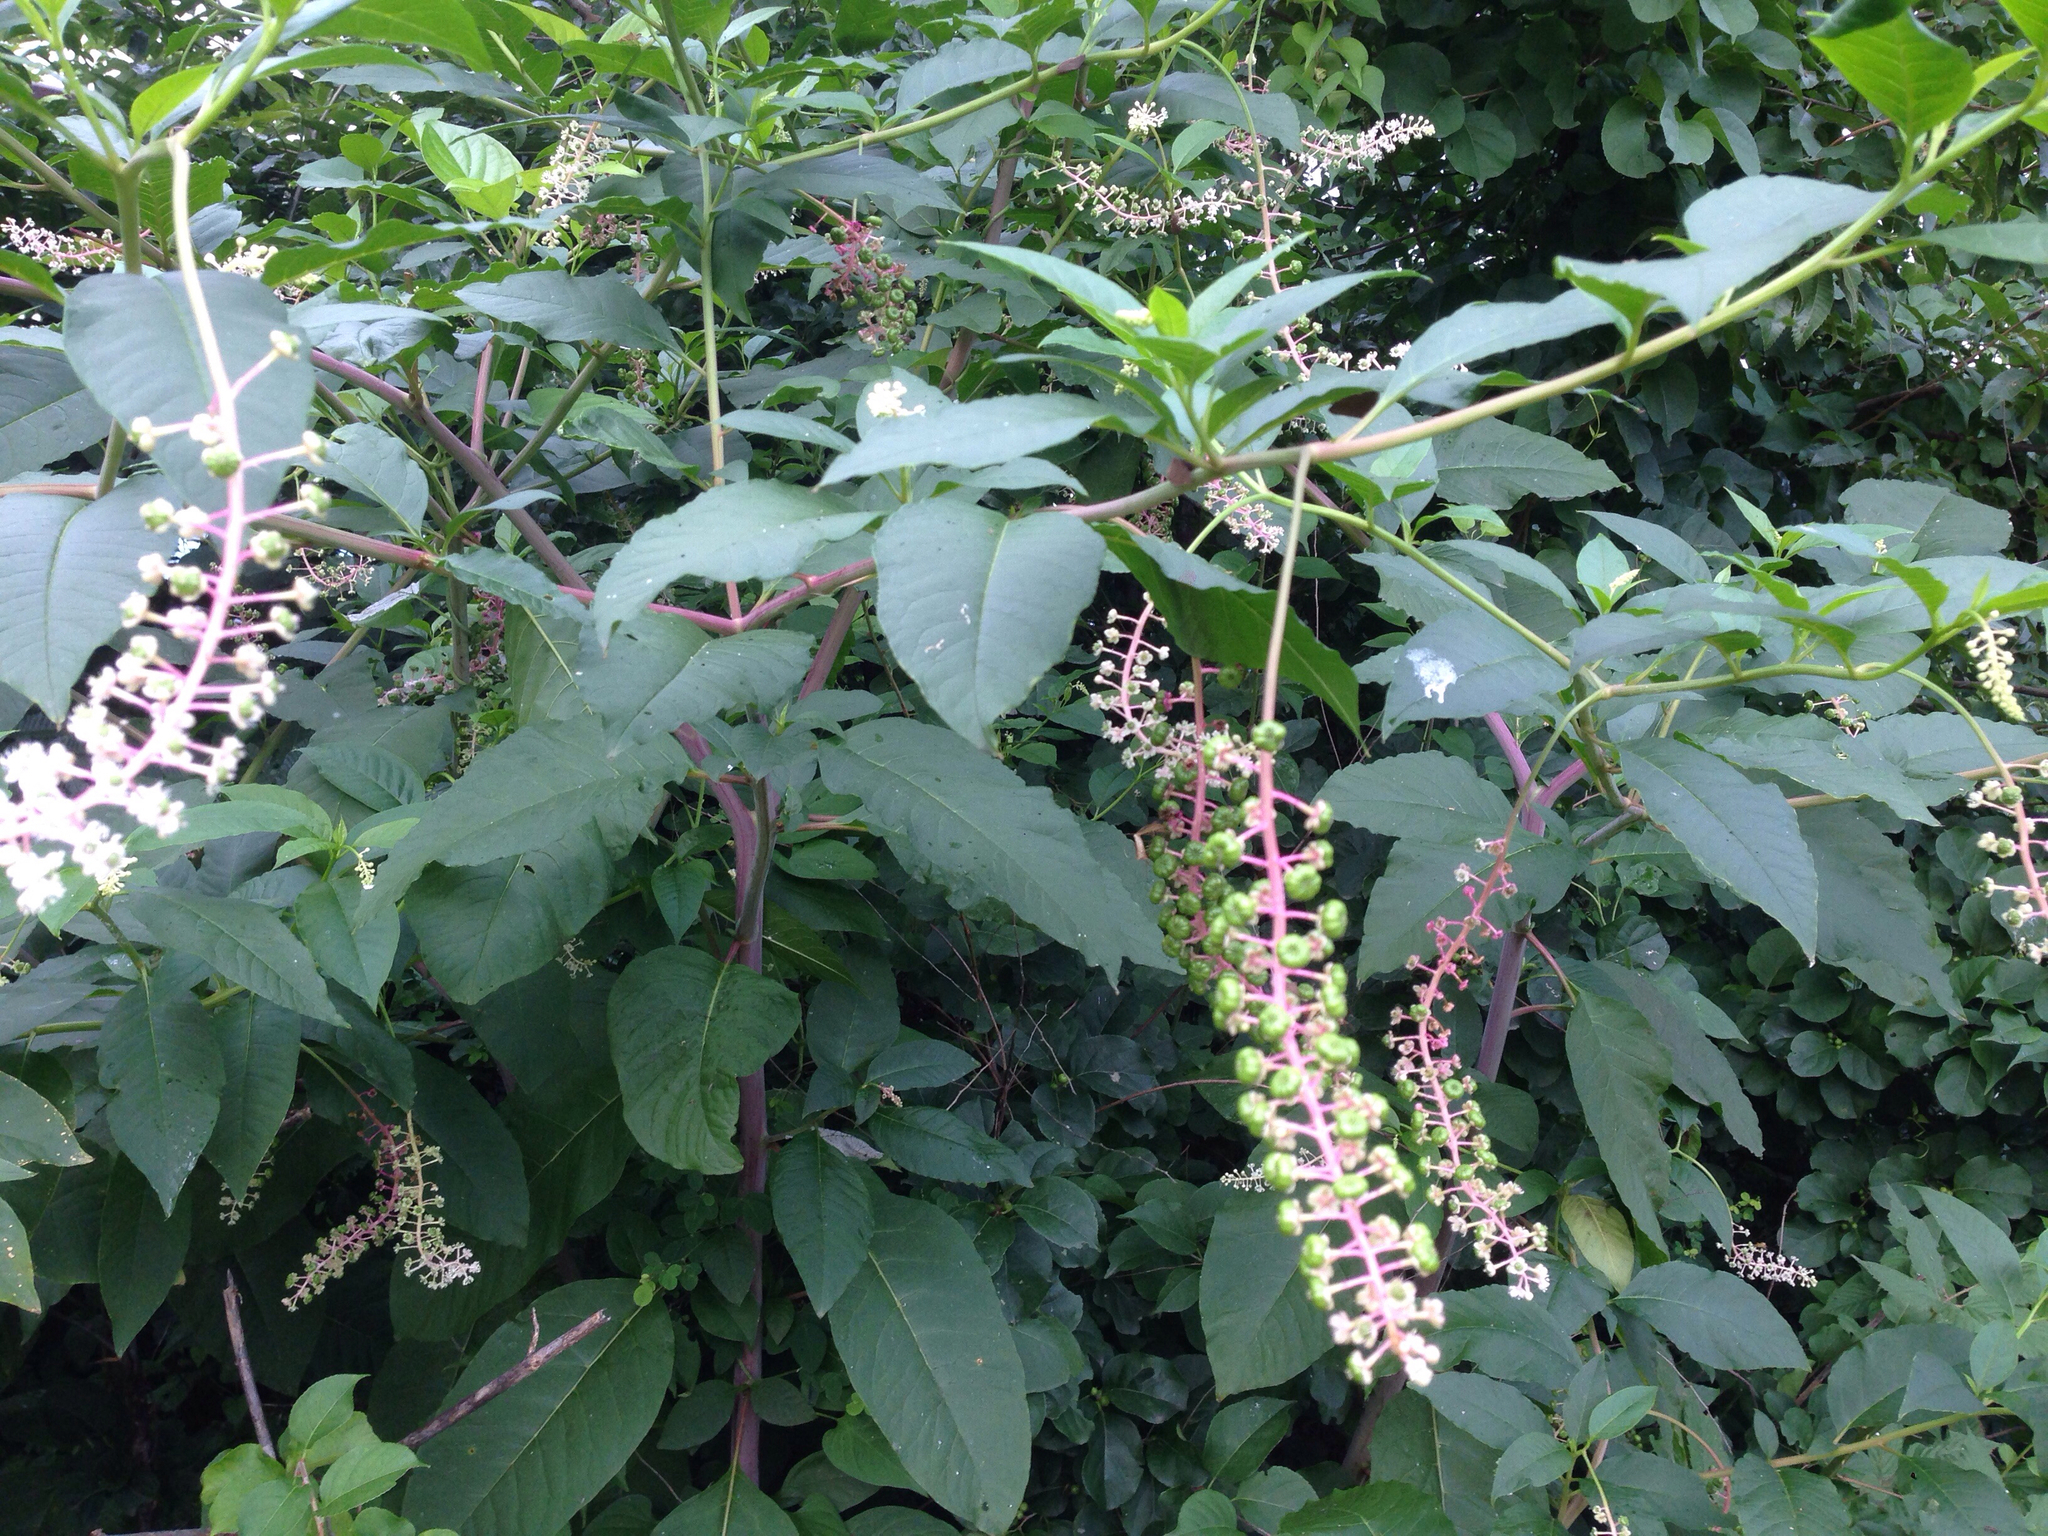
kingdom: Plantae
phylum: Tracheophyta
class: Magnoliopsida
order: Caryophyllales
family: Phytolaccaceae
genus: Phytolacca
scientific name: Phytolacca americana
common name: American pokeweed
